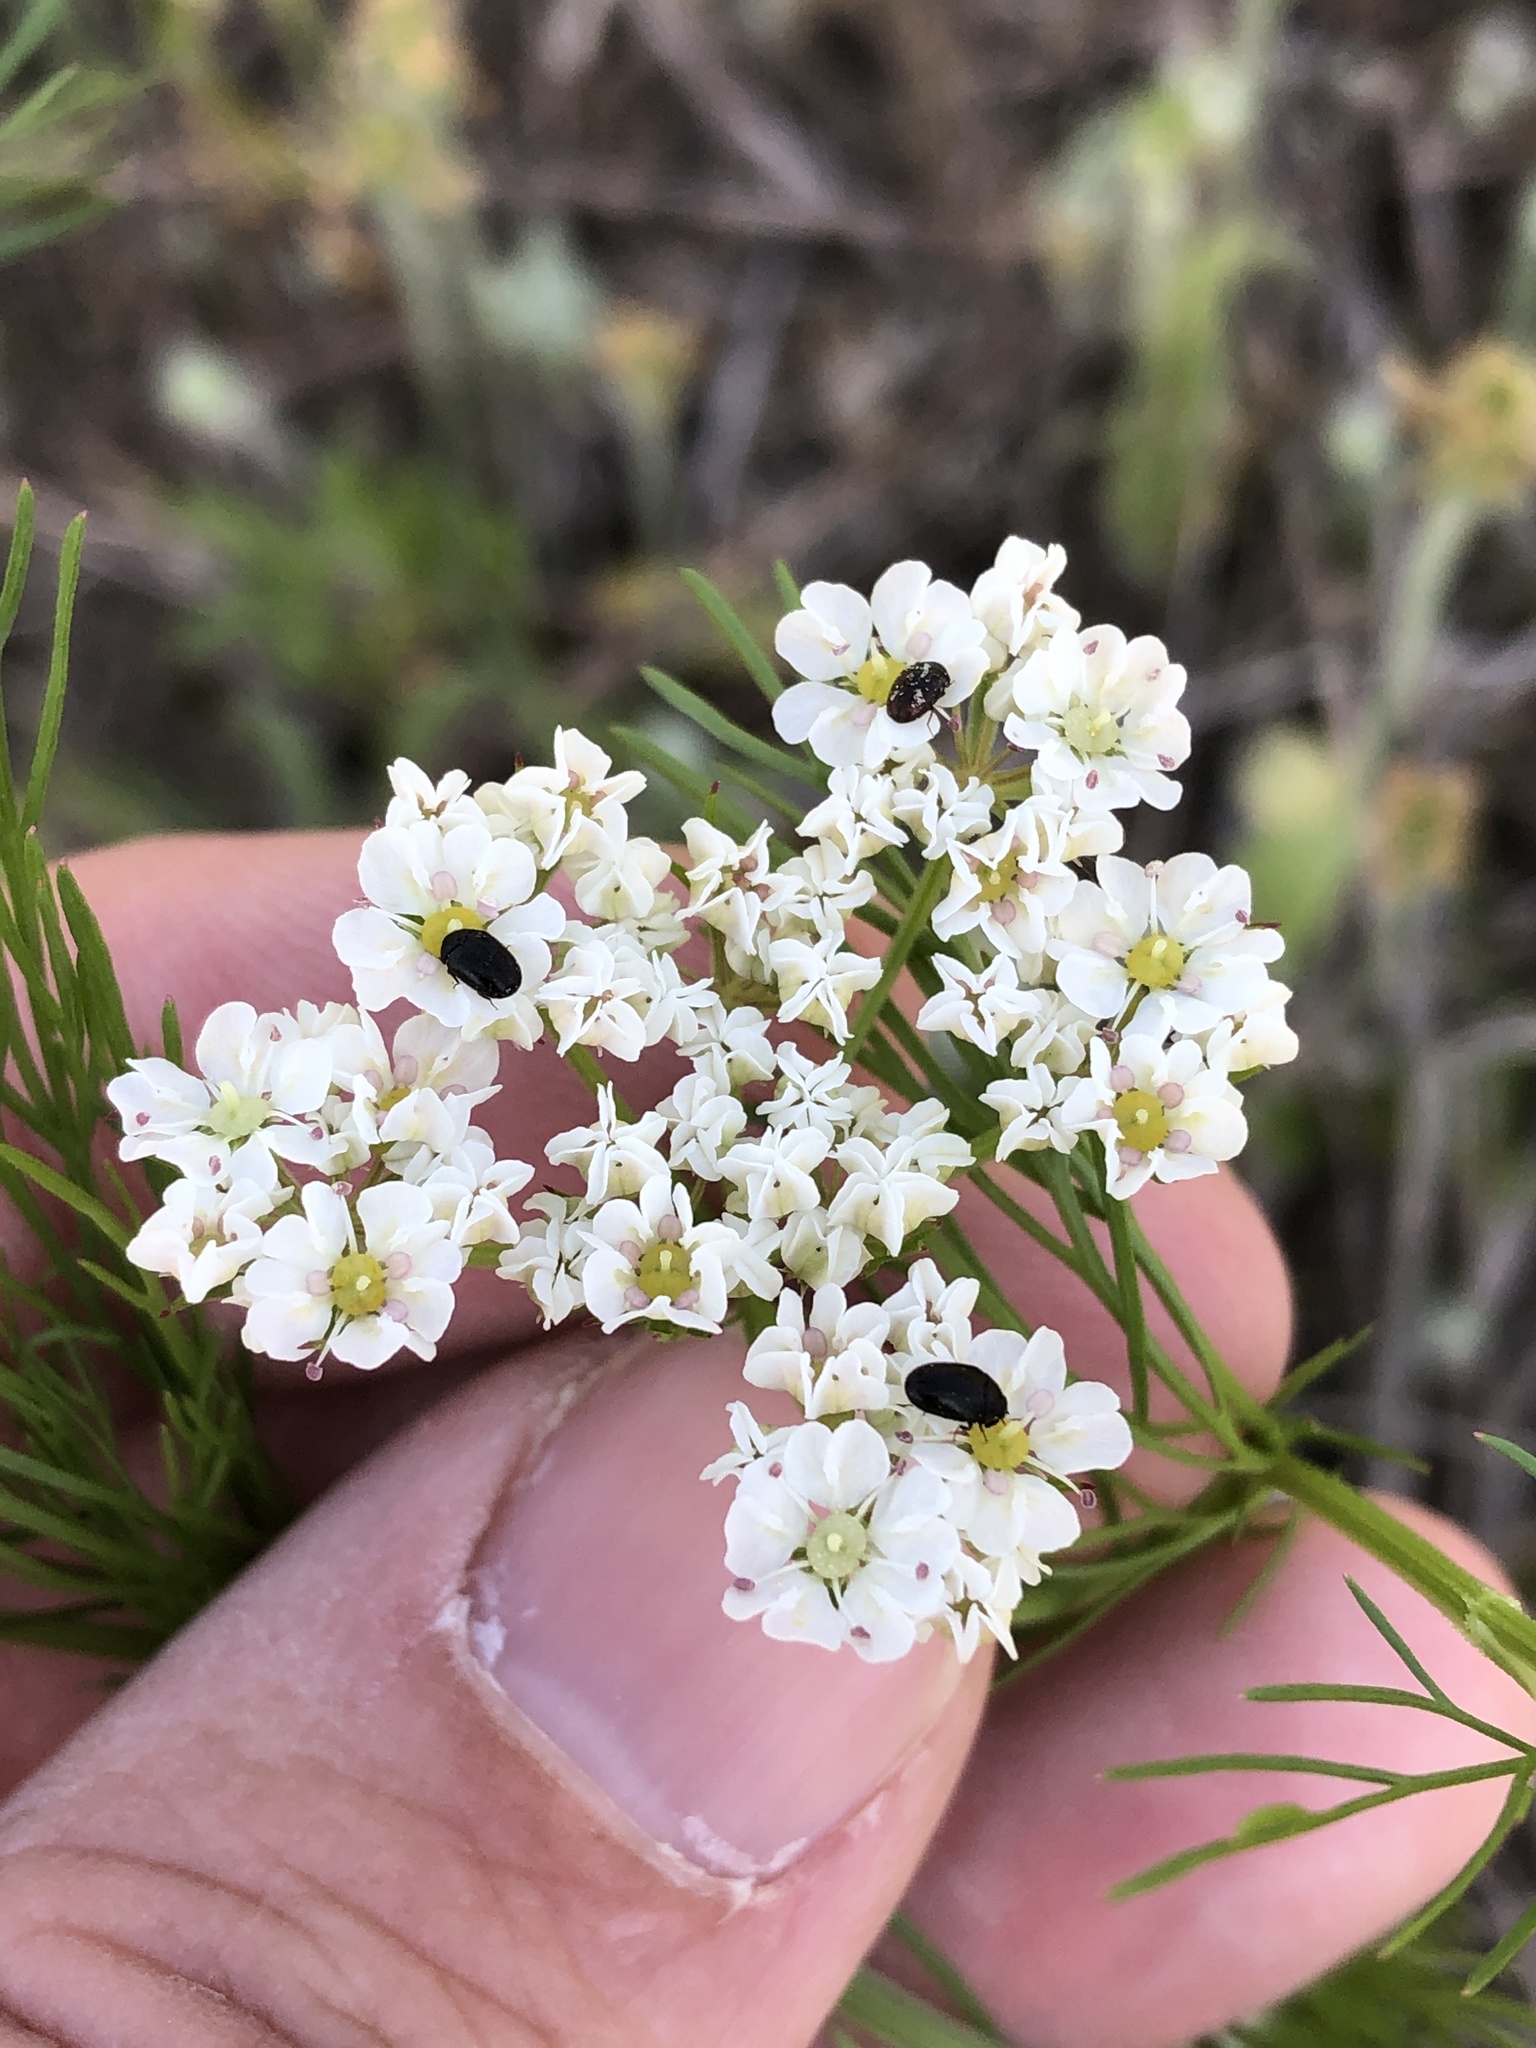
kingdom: Plantae
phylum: Tracheophyta
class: Magnoliopsida
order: Apiales
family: Apiaceae
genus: Atrema
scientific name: Atrema americanum
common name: Prairie-bishop
